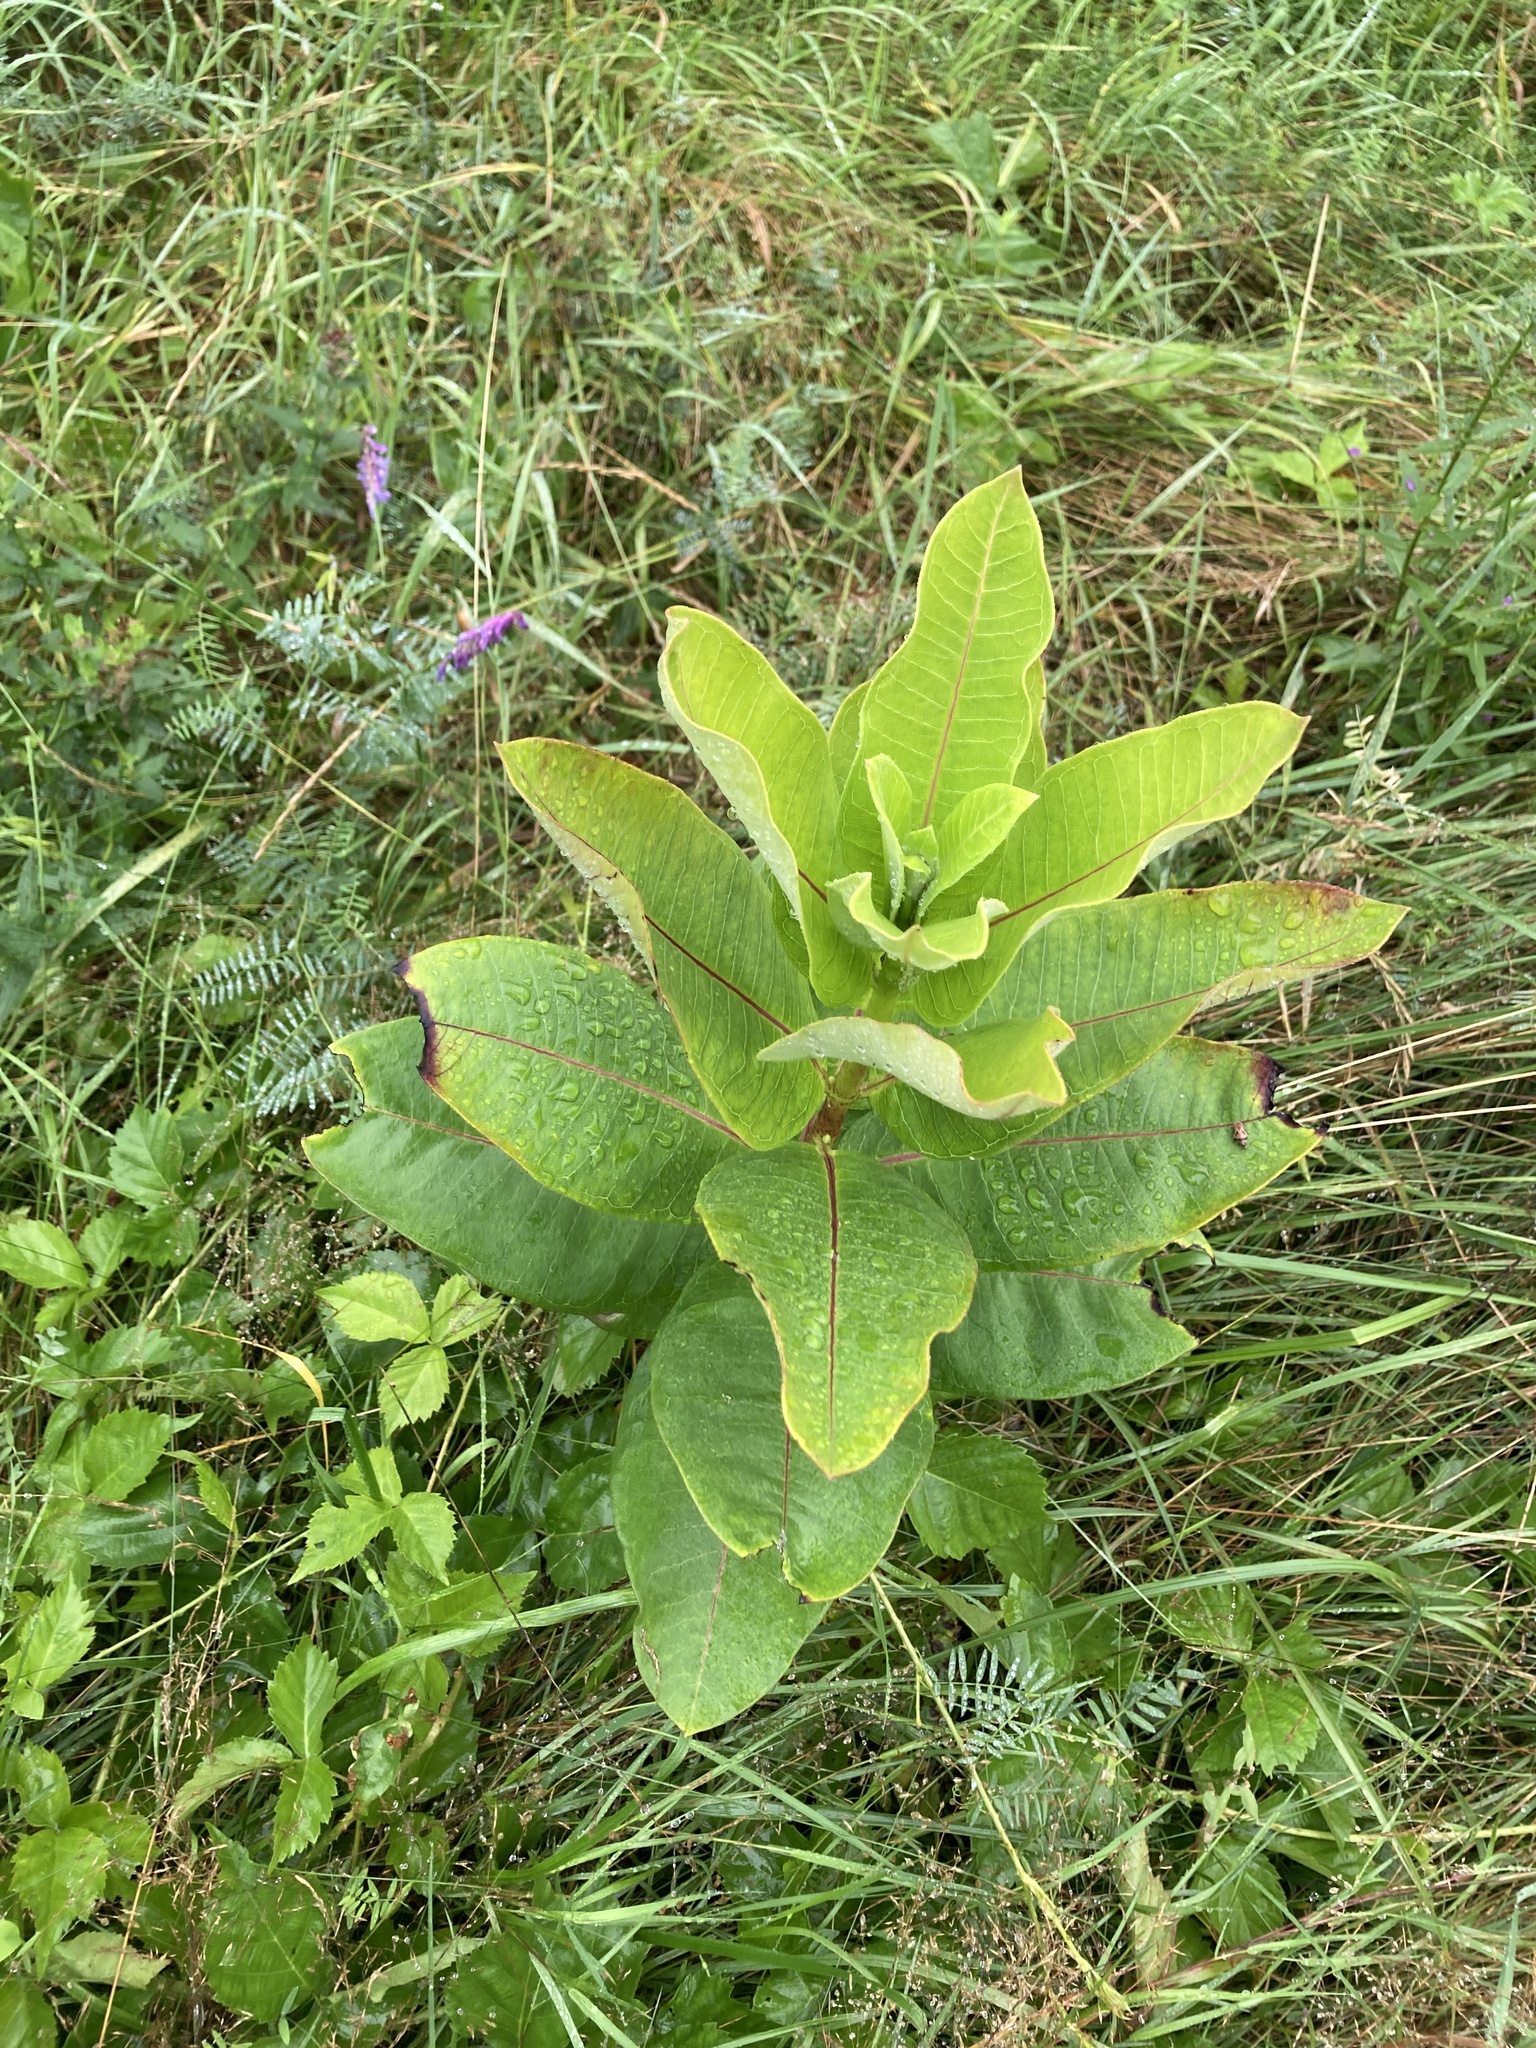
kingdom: Plantae
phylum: Tracheophyta
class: Magnoliopsida
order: Gentianales
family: Apocynaceae
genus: Asclepias
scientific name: Asclepias syriaca
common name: Common milkweed
